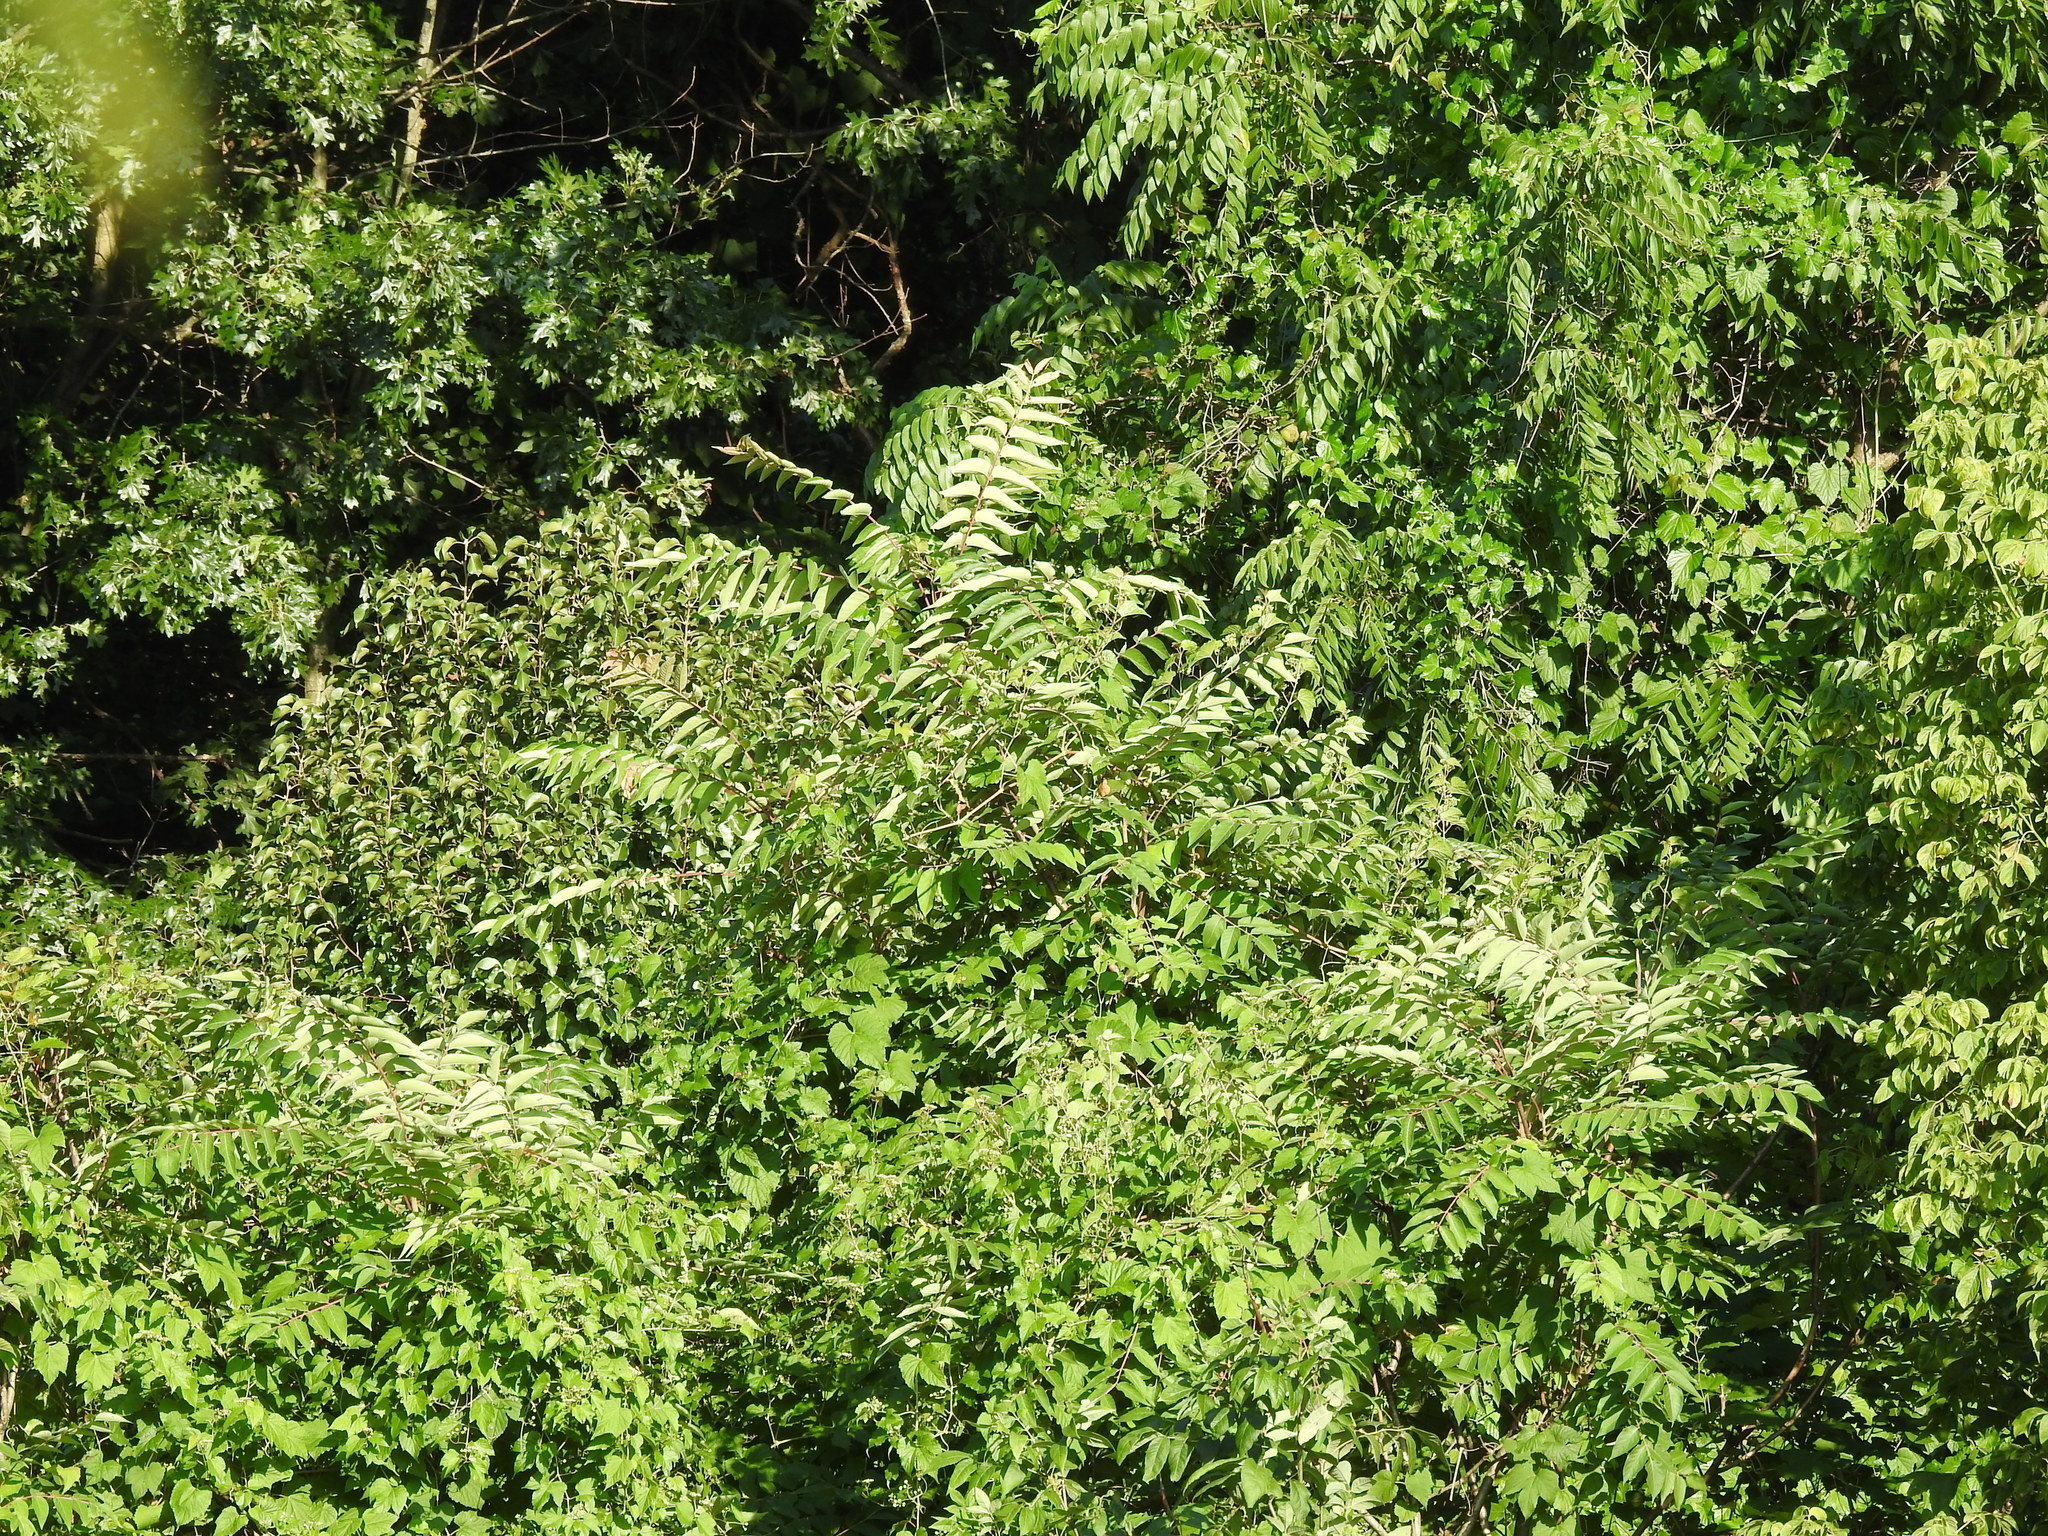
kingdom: Plantae
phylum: Tracheophyta
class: Magnoliopsida
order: Sapindales
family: Simaroubaceae
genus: Ailanthus
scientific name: Ailanthus altissima
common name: Tree-of-heaven
